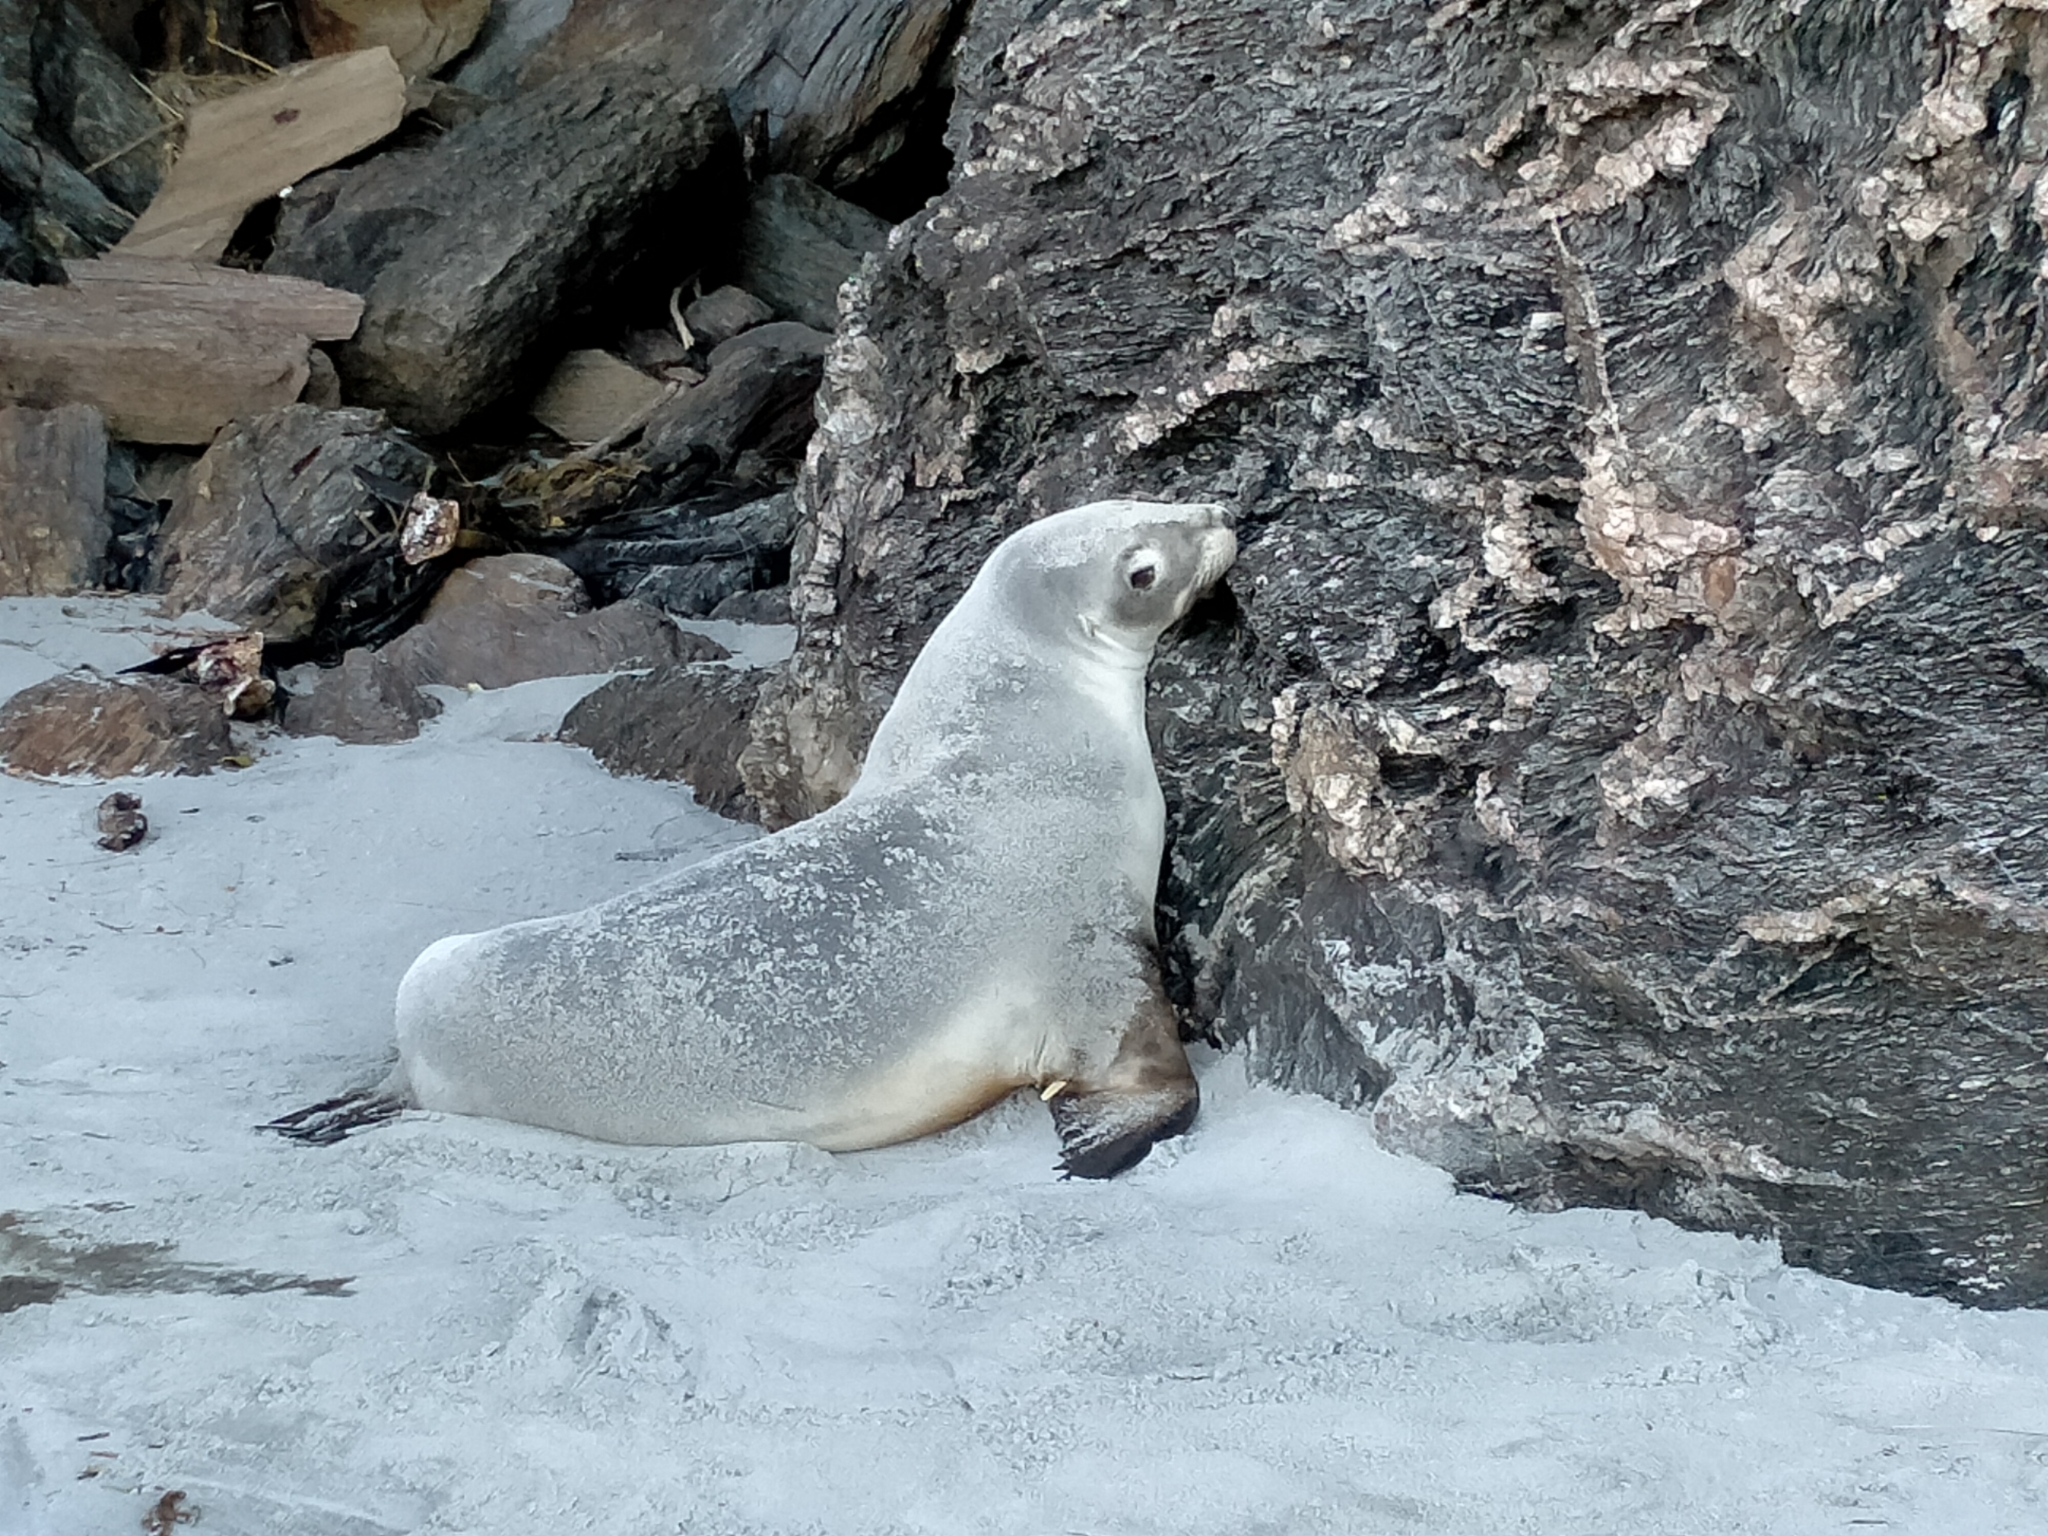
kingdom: Animalia
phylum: Chordata
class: Mammalia
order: Carnivora
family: Otariidae
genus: Phocarctos
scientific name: Phocarctos hookeri
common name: New zealand sea lion
